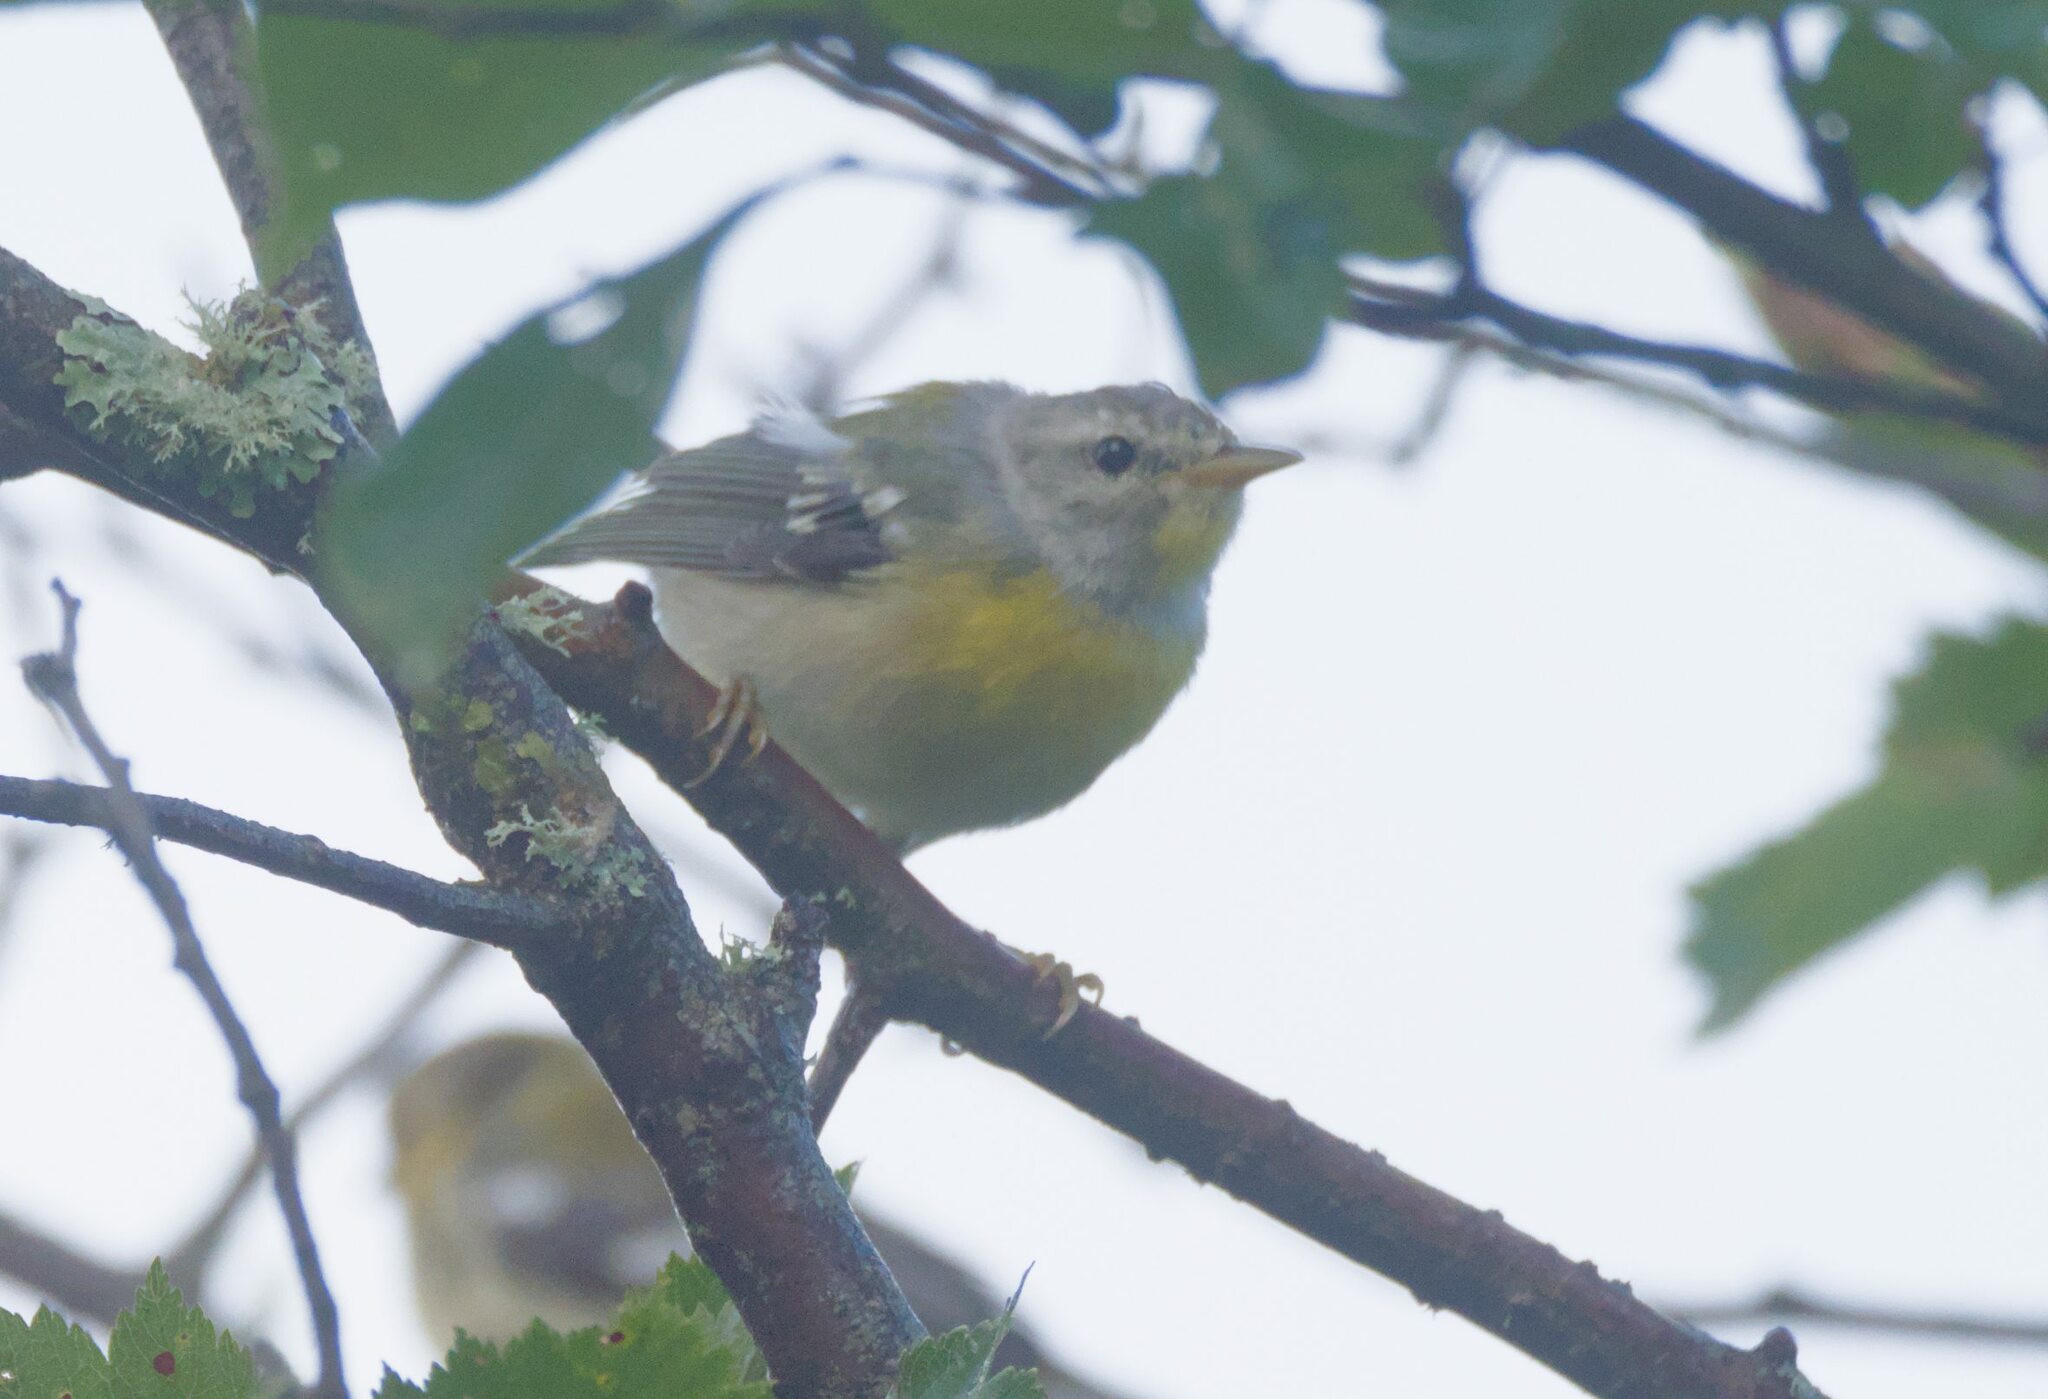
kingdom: Animalia
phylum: Chordata
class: Aves
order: Passeriformes
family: Parulidae
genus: Setophaga
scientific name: Setophaga americana
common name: Northern parula
